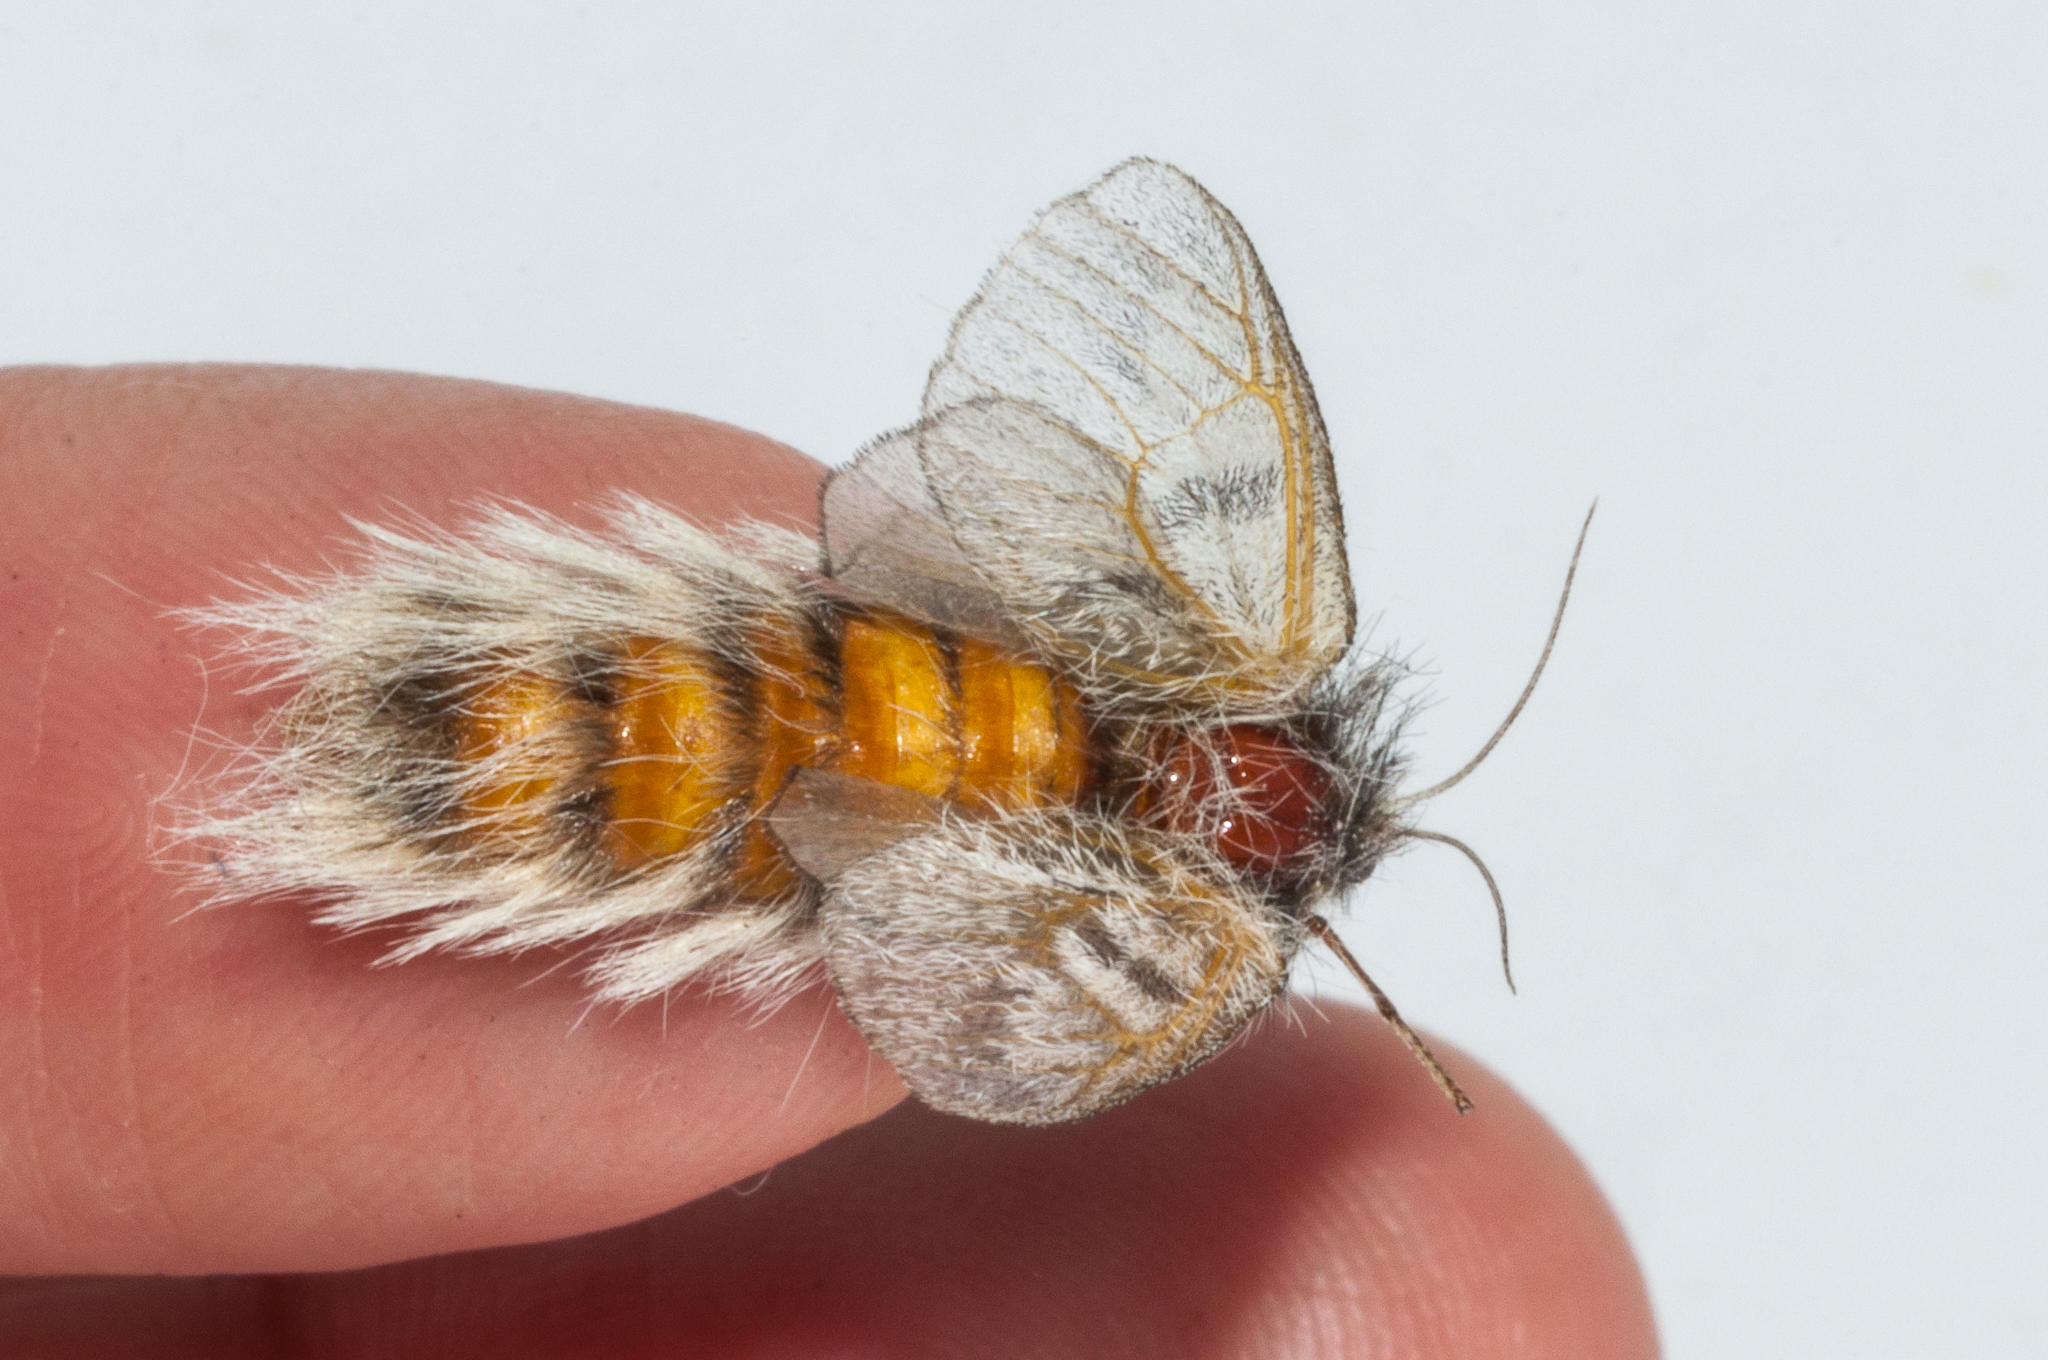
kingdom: Animalia
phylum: Arthropoda
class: Insecta
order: Lepidoptera
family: Somabrachyidae
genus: Psycharium
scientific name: Psycharium kammanassiense
